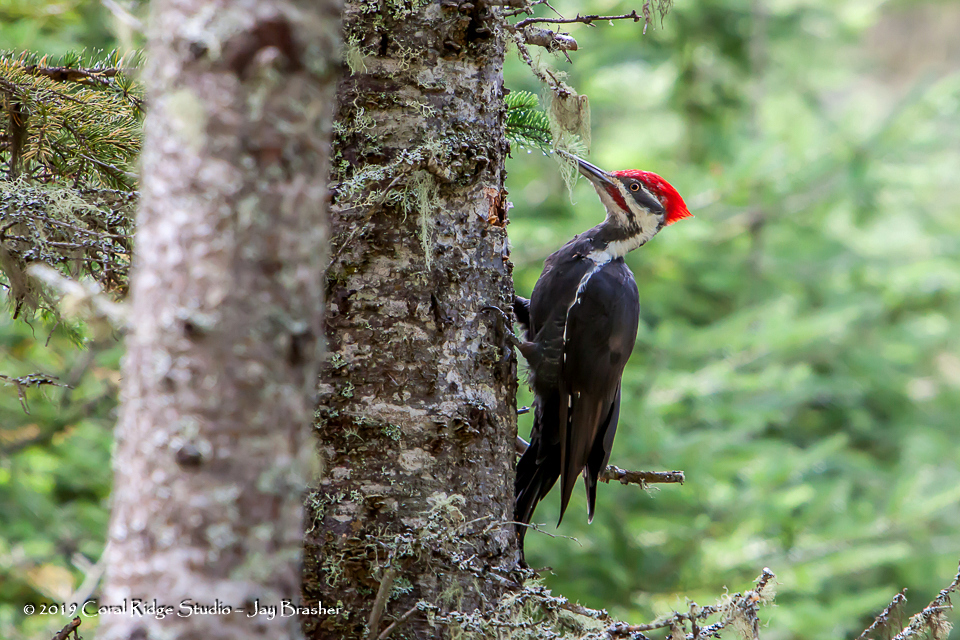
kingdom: Animalia
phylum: Chordata
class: Aves
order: Piciformes
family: Picidae
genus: Dryocopus
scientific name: Dryocopus pileatus
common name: Pileated woodpecker
